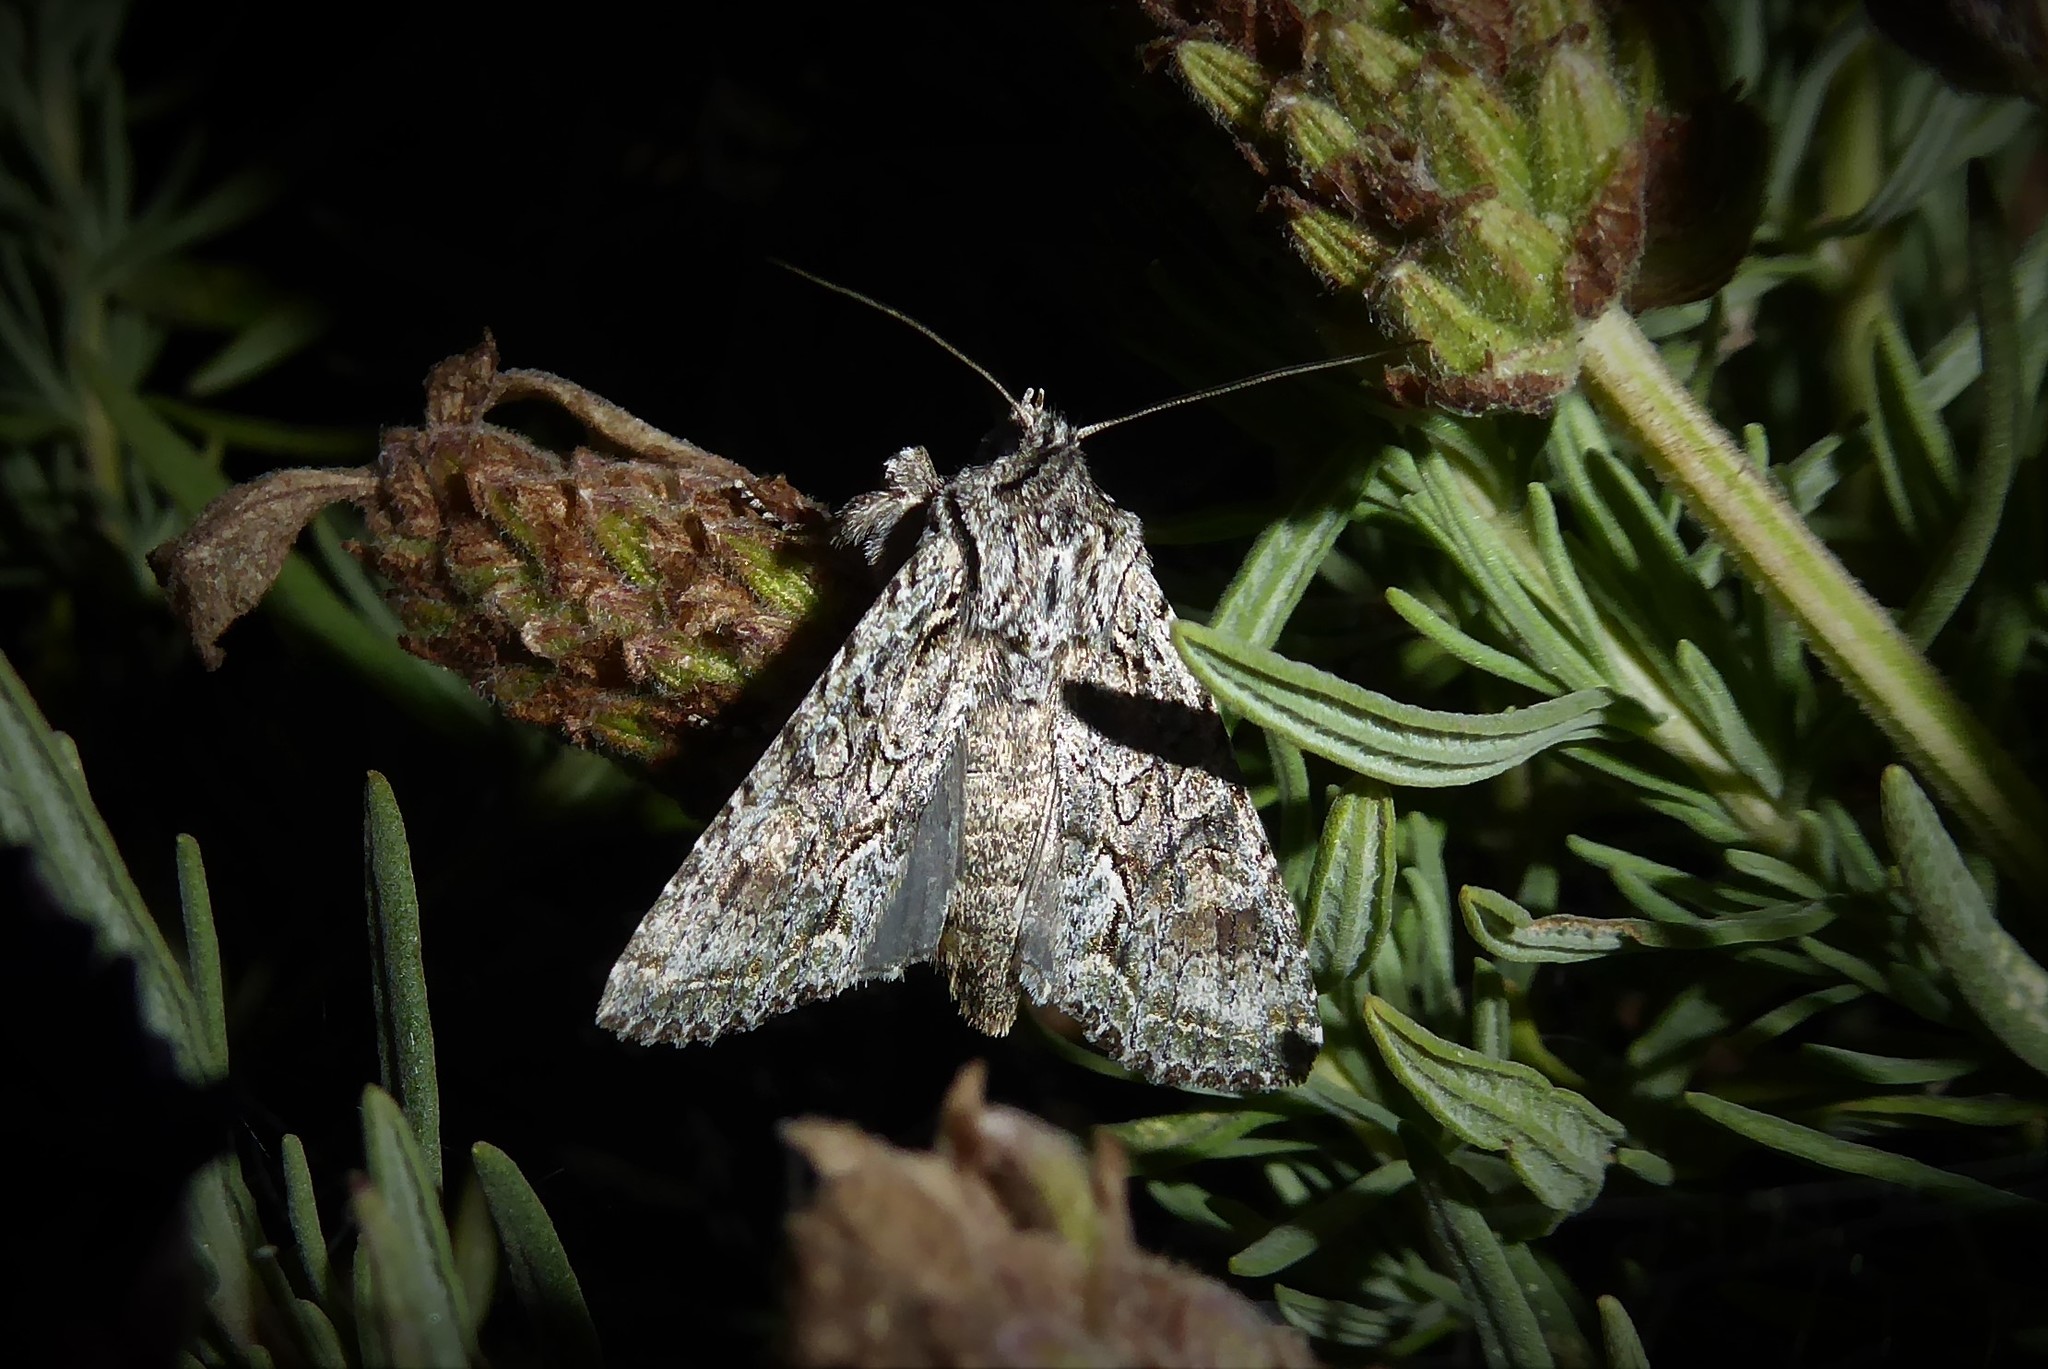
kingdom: Animalia
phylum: Arthropoda
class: Insecta
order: Lepidoptera
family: Noctuidae
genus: Ichneutica
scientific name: Ichneutica mutans
